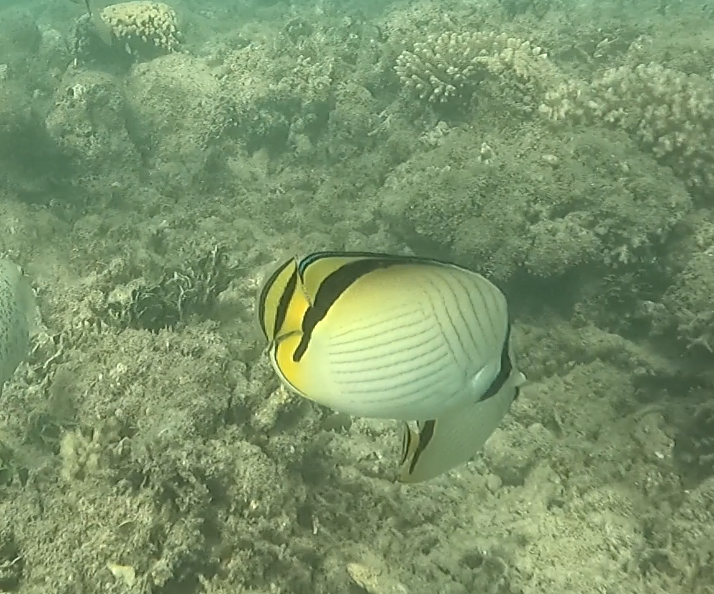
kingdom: Animalia
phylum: Chordata
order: Perciformes
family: Chaetodontidae
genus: Chaetodon
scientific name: Chaetodon vagabundus
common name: Vagabond butterflyfish
